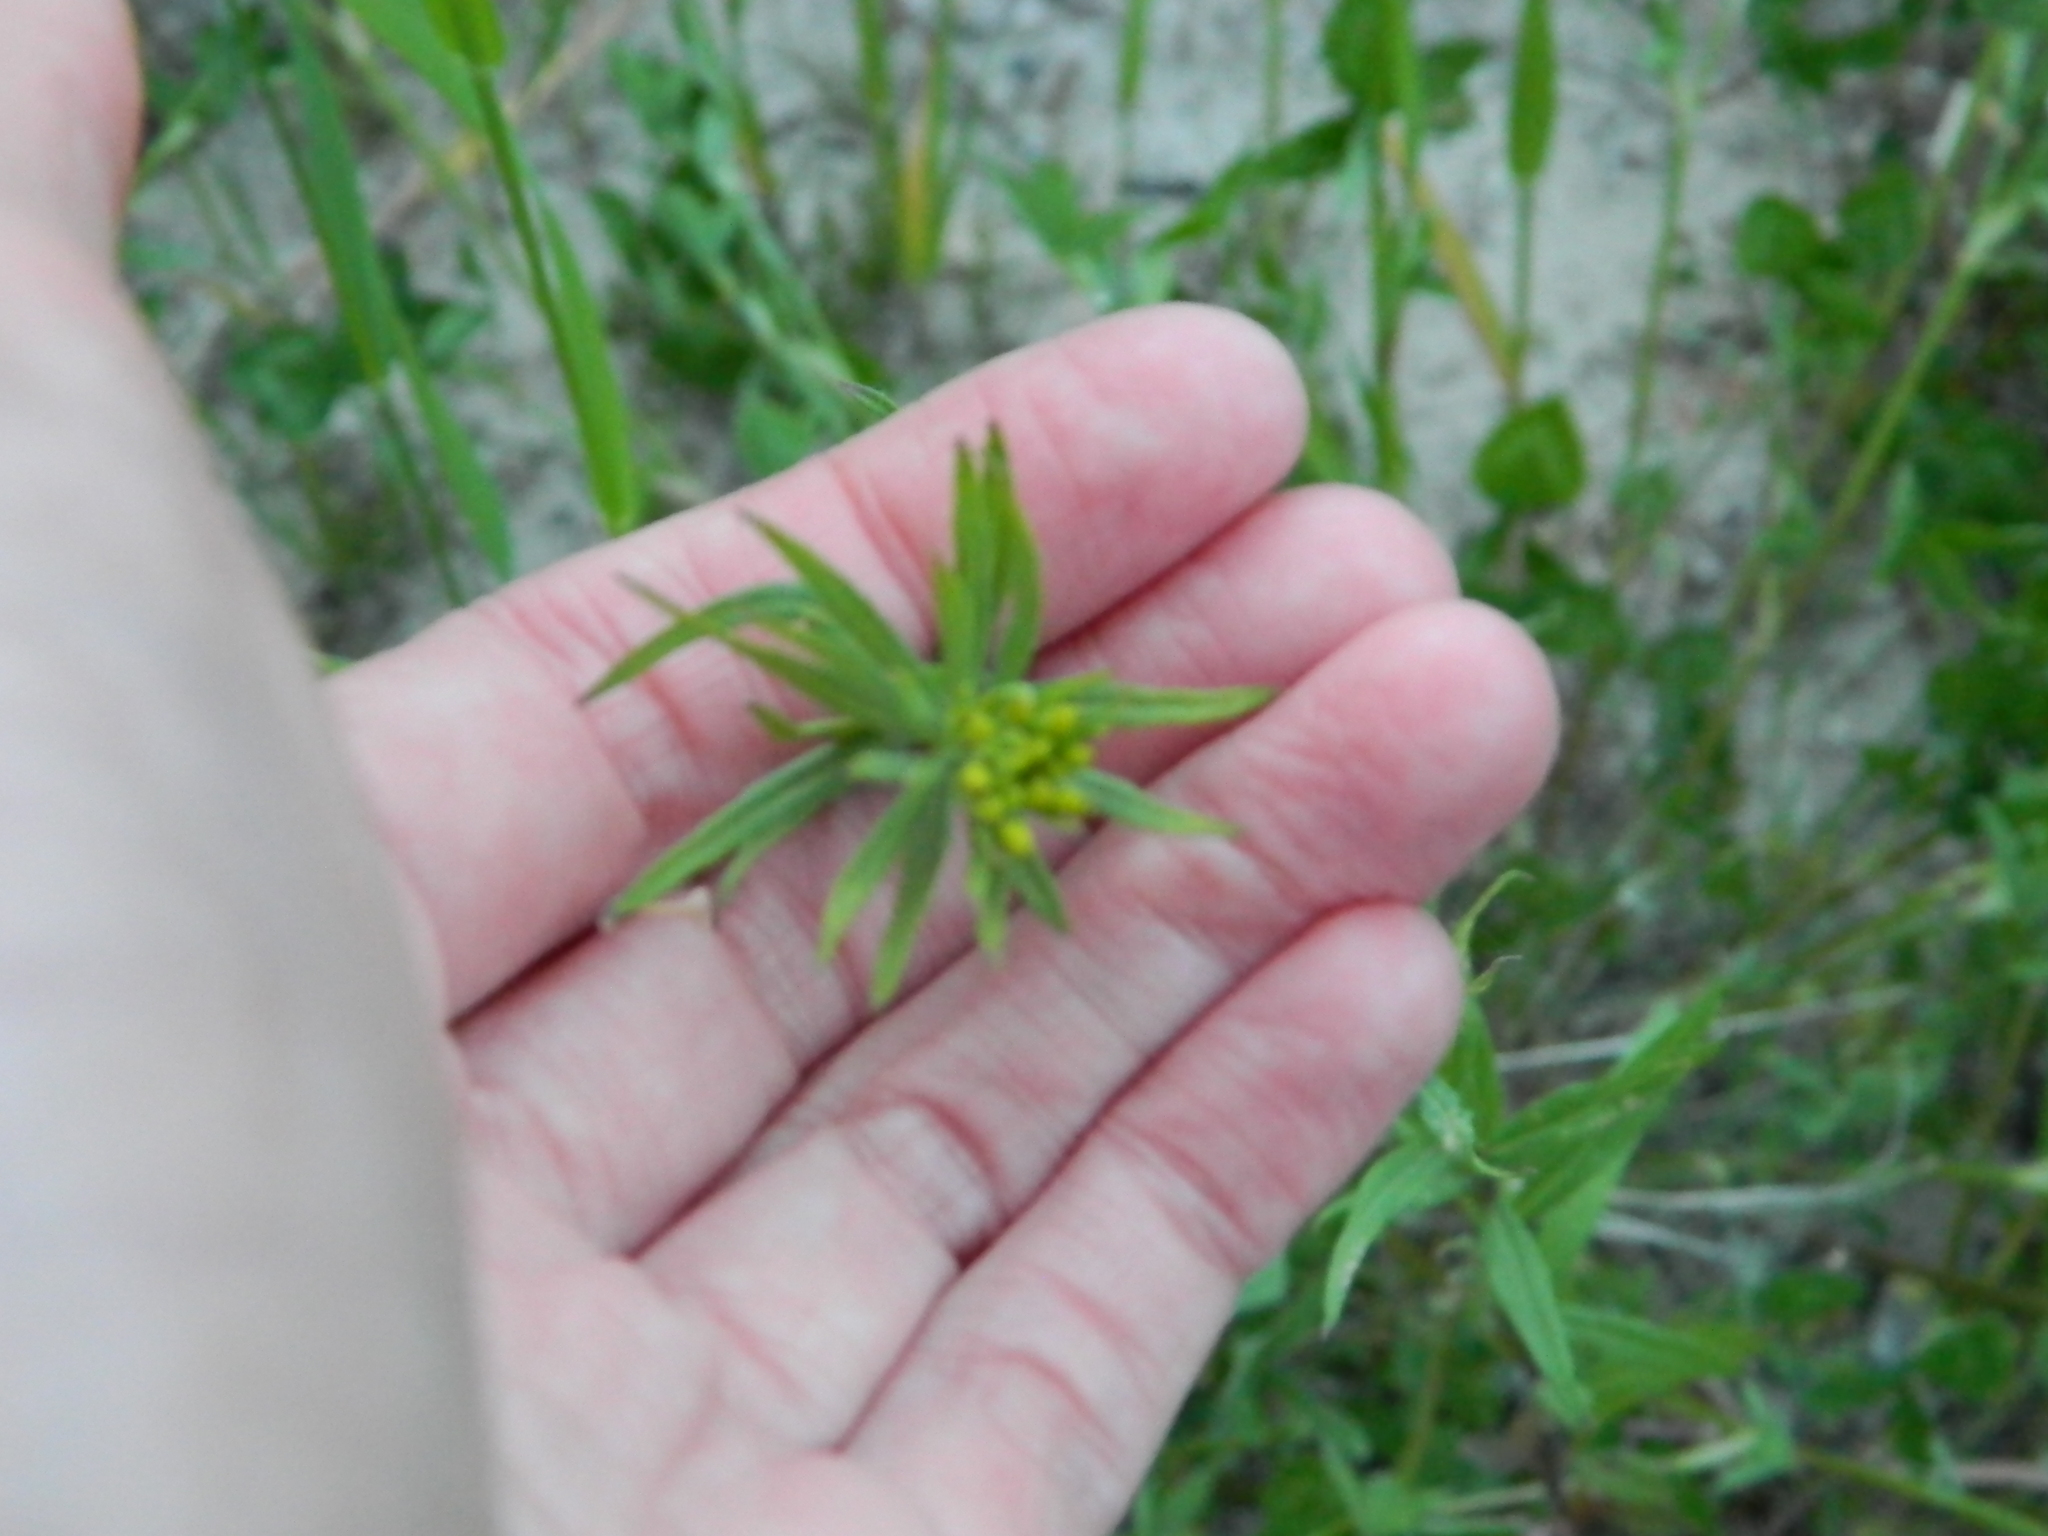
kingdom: Plantae
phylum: Tracheophyta
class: Magnoliopsida
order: Brassicales
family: Brassicaceae
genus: Erysimum
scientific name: Erysimum cheiranthoides
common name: Treacle mustard
